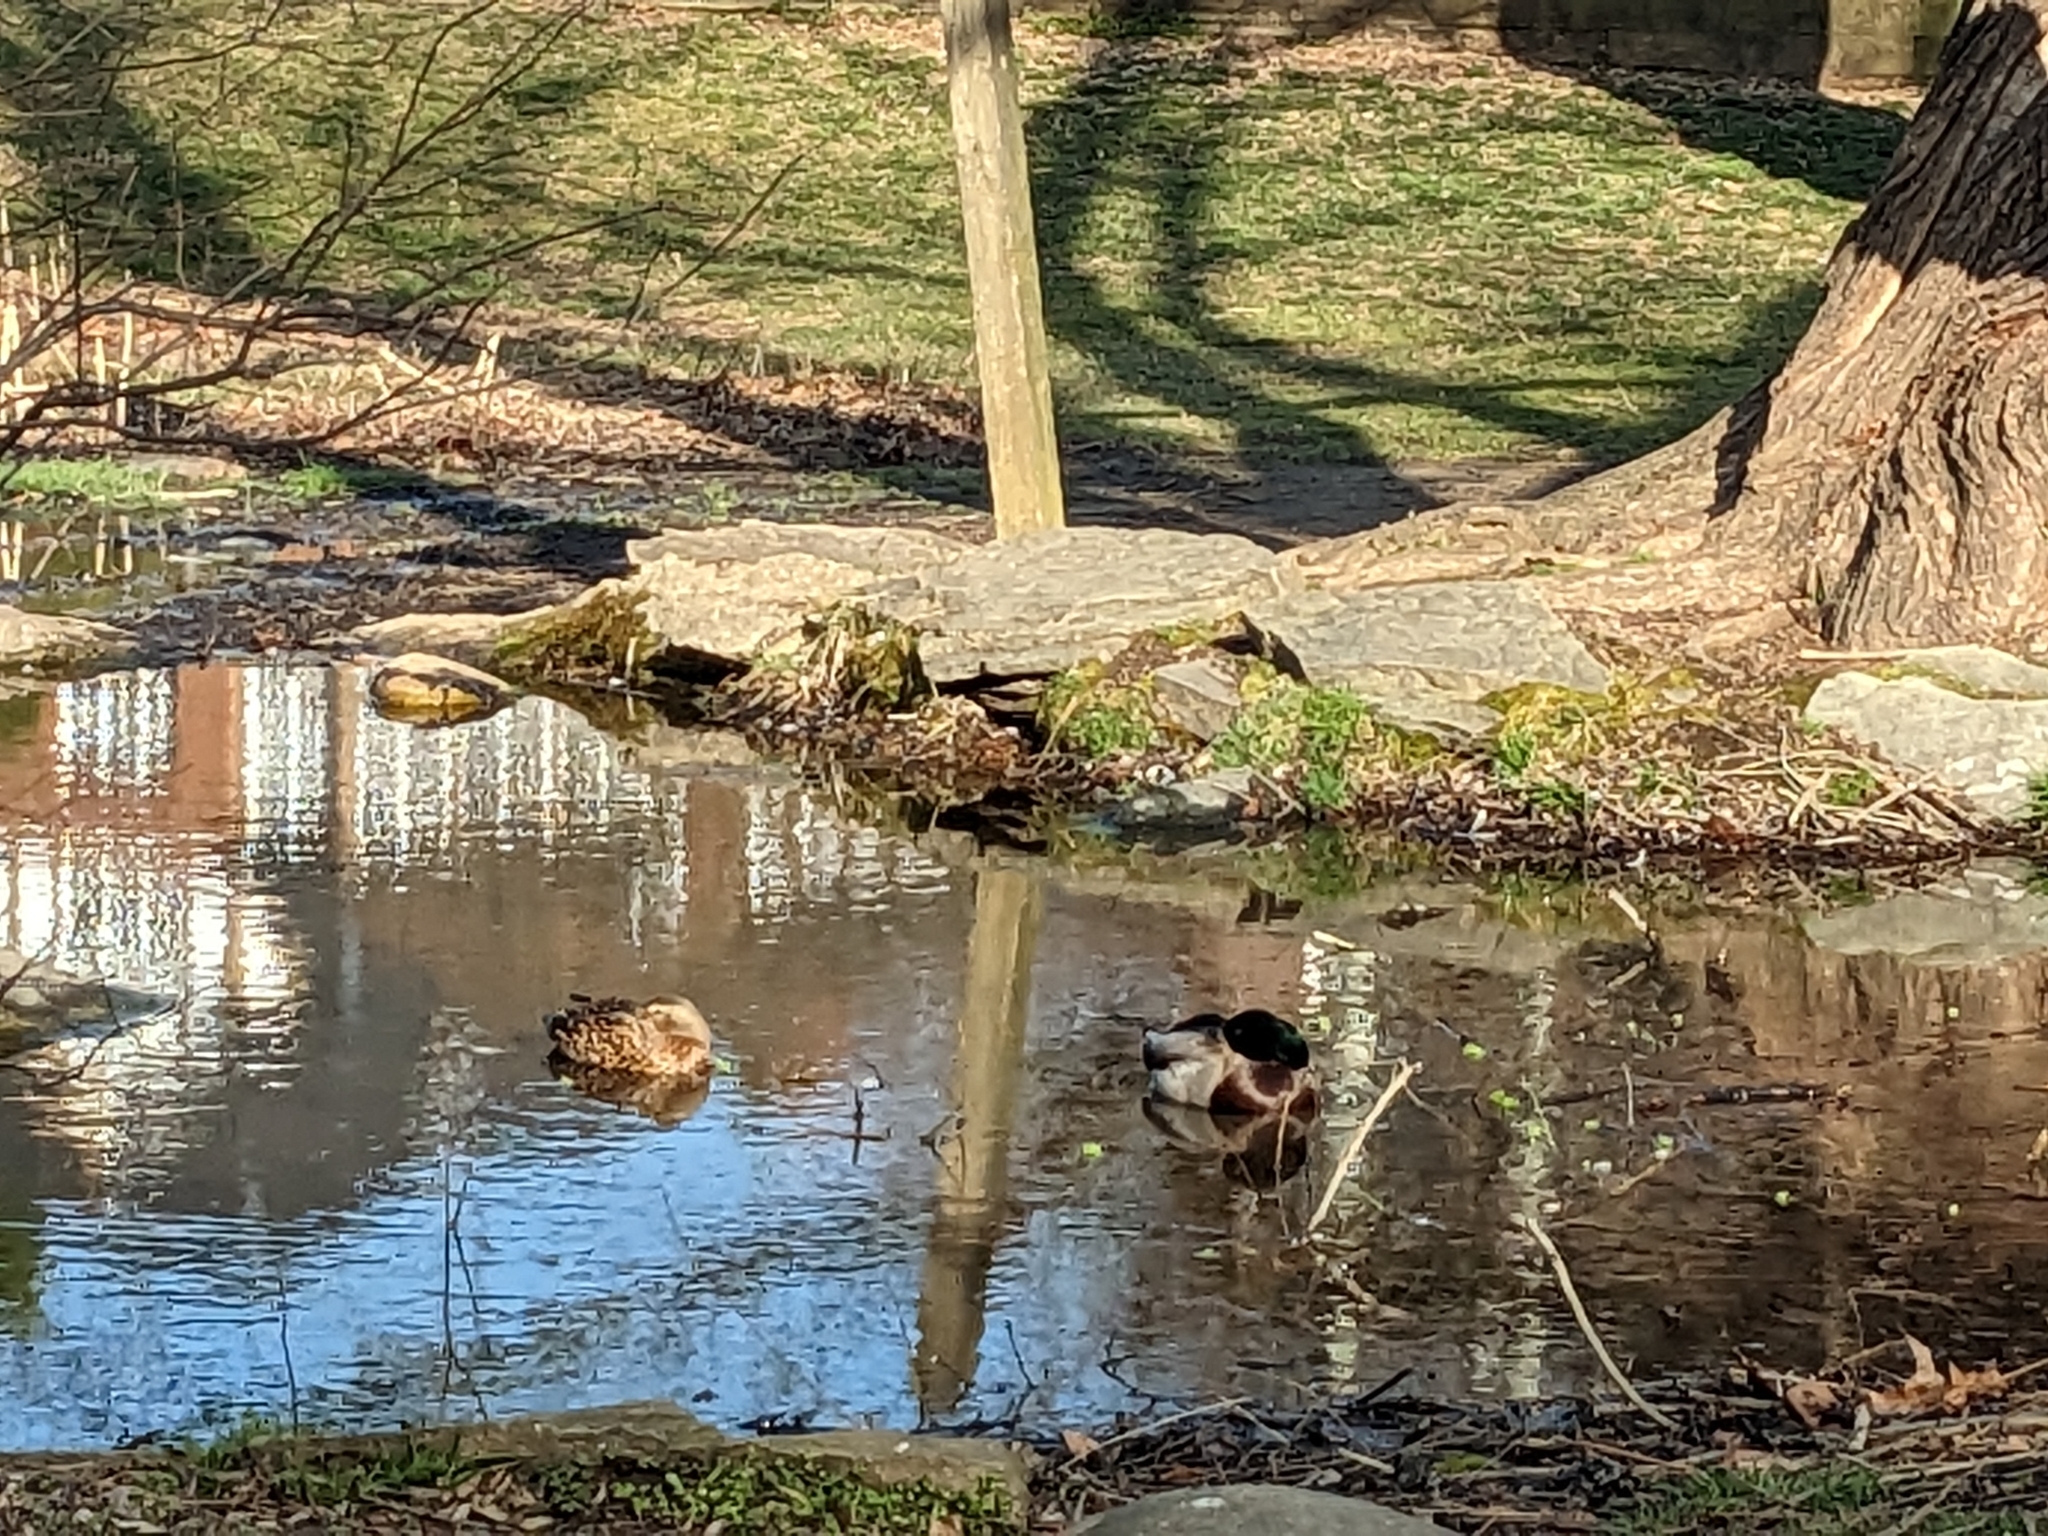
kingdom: Animalia
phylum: Chordata
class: Aves
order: Anseriformes
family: Anatidae
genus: Anas
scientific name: Anas platyrhynchos
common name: Mallard
